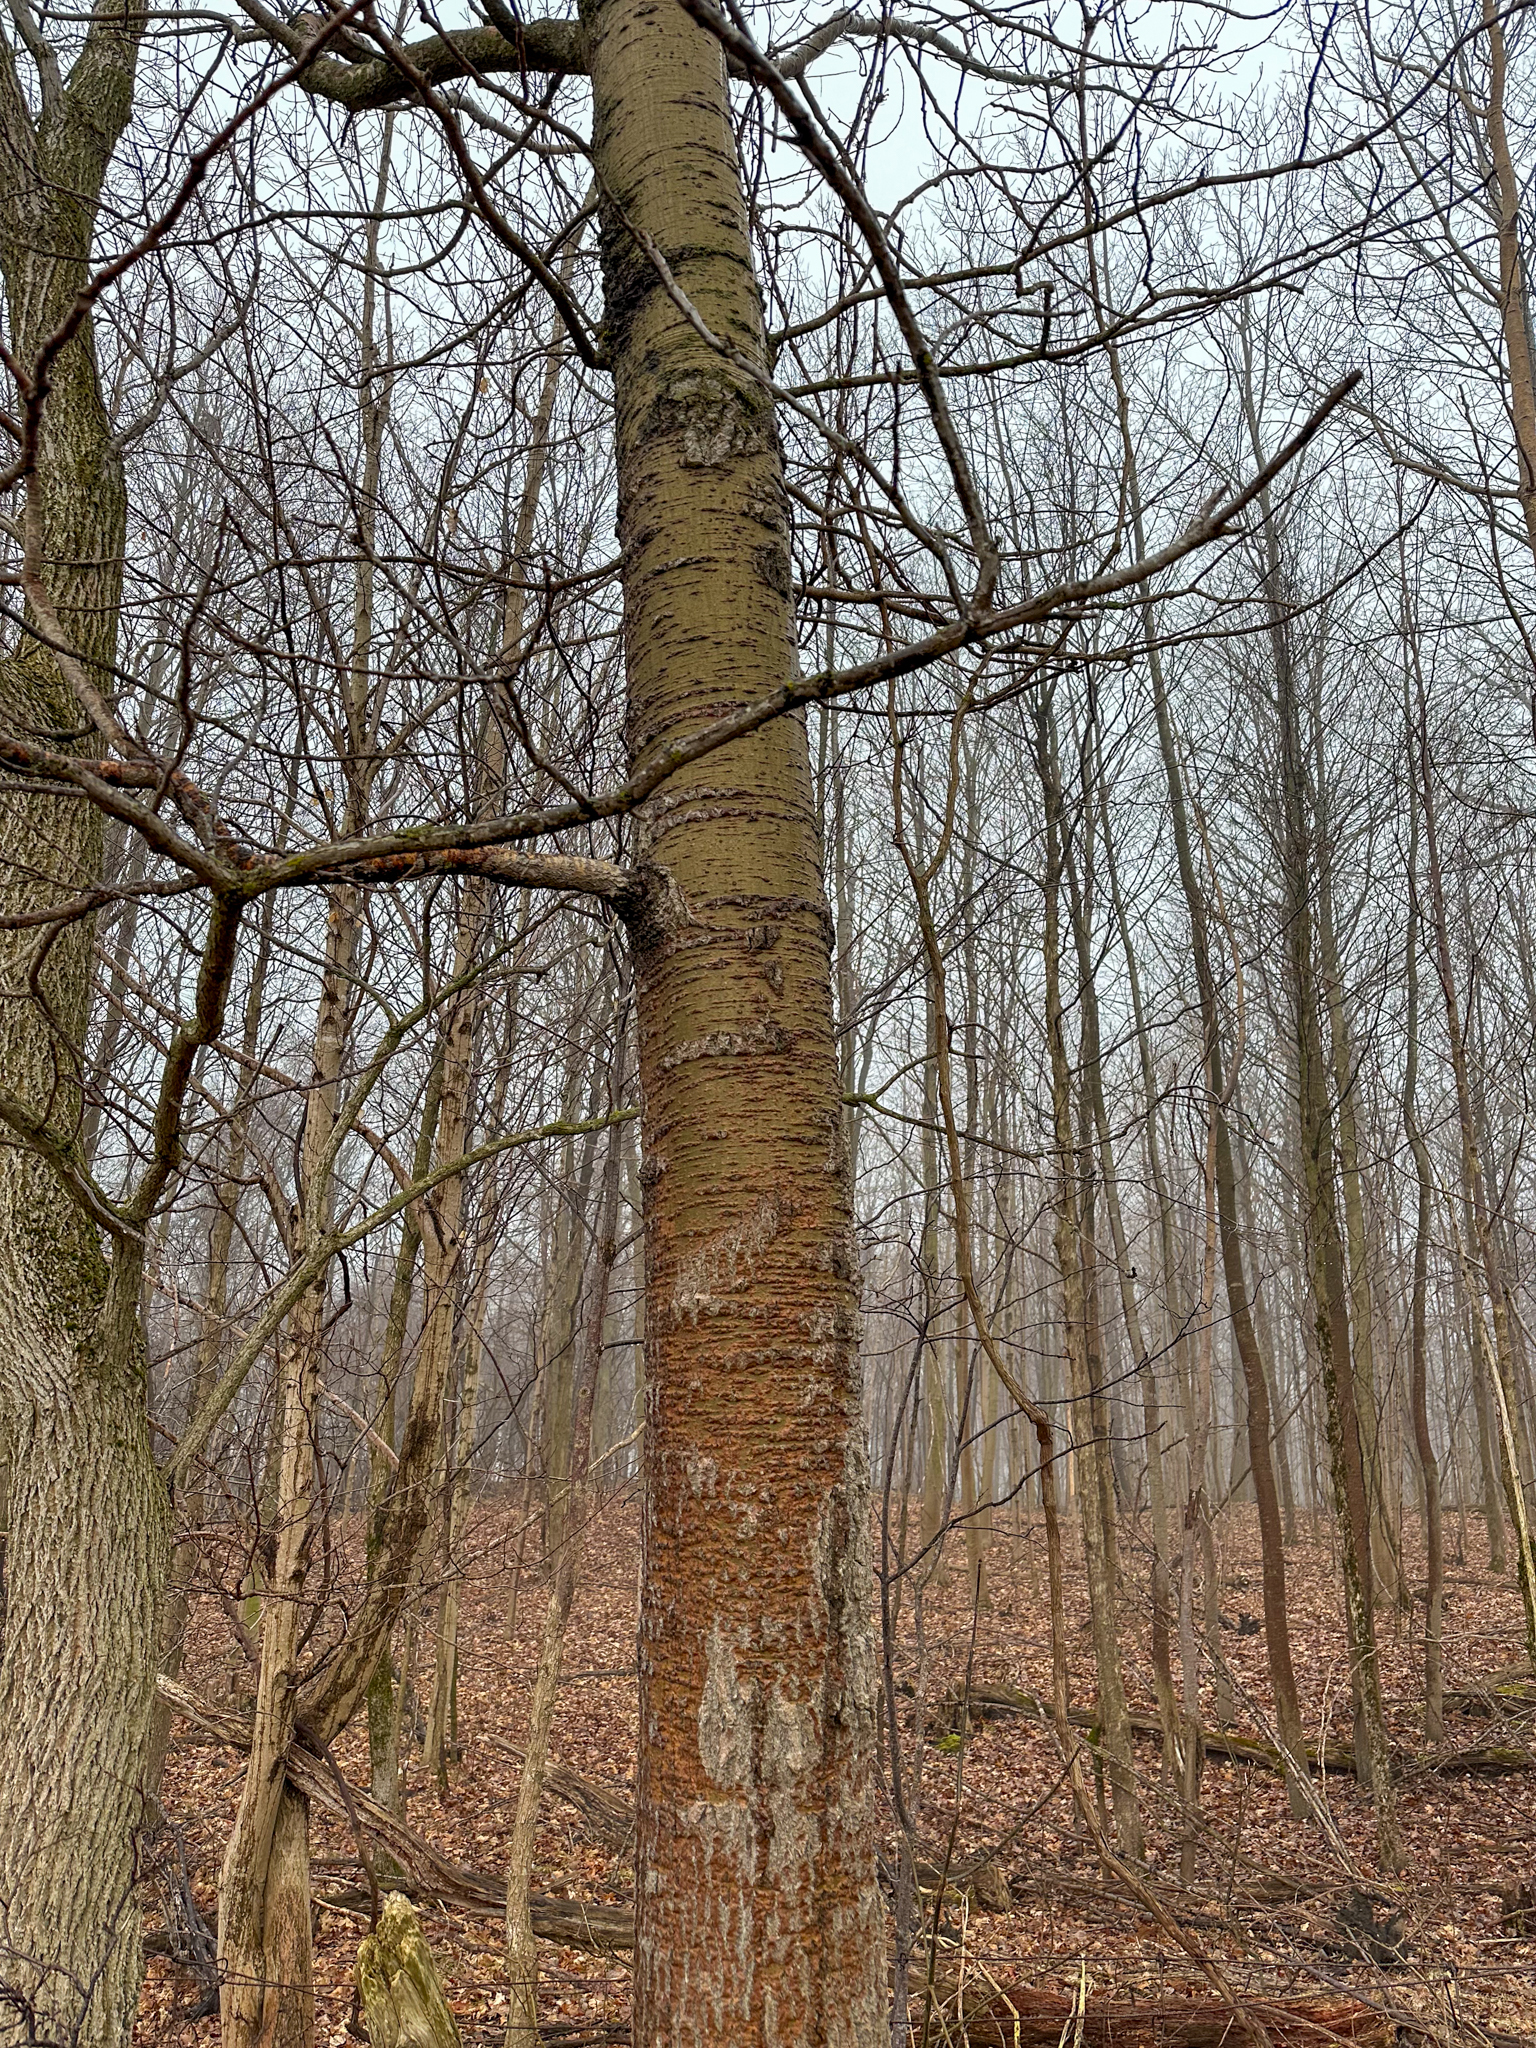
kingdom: Plantae
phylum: Tracheophyta
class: Magnoliopsida
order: Malpighiales
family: Salicaceae
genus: Populus
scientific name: Populus grandidentata
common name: Bigtooth aspen
